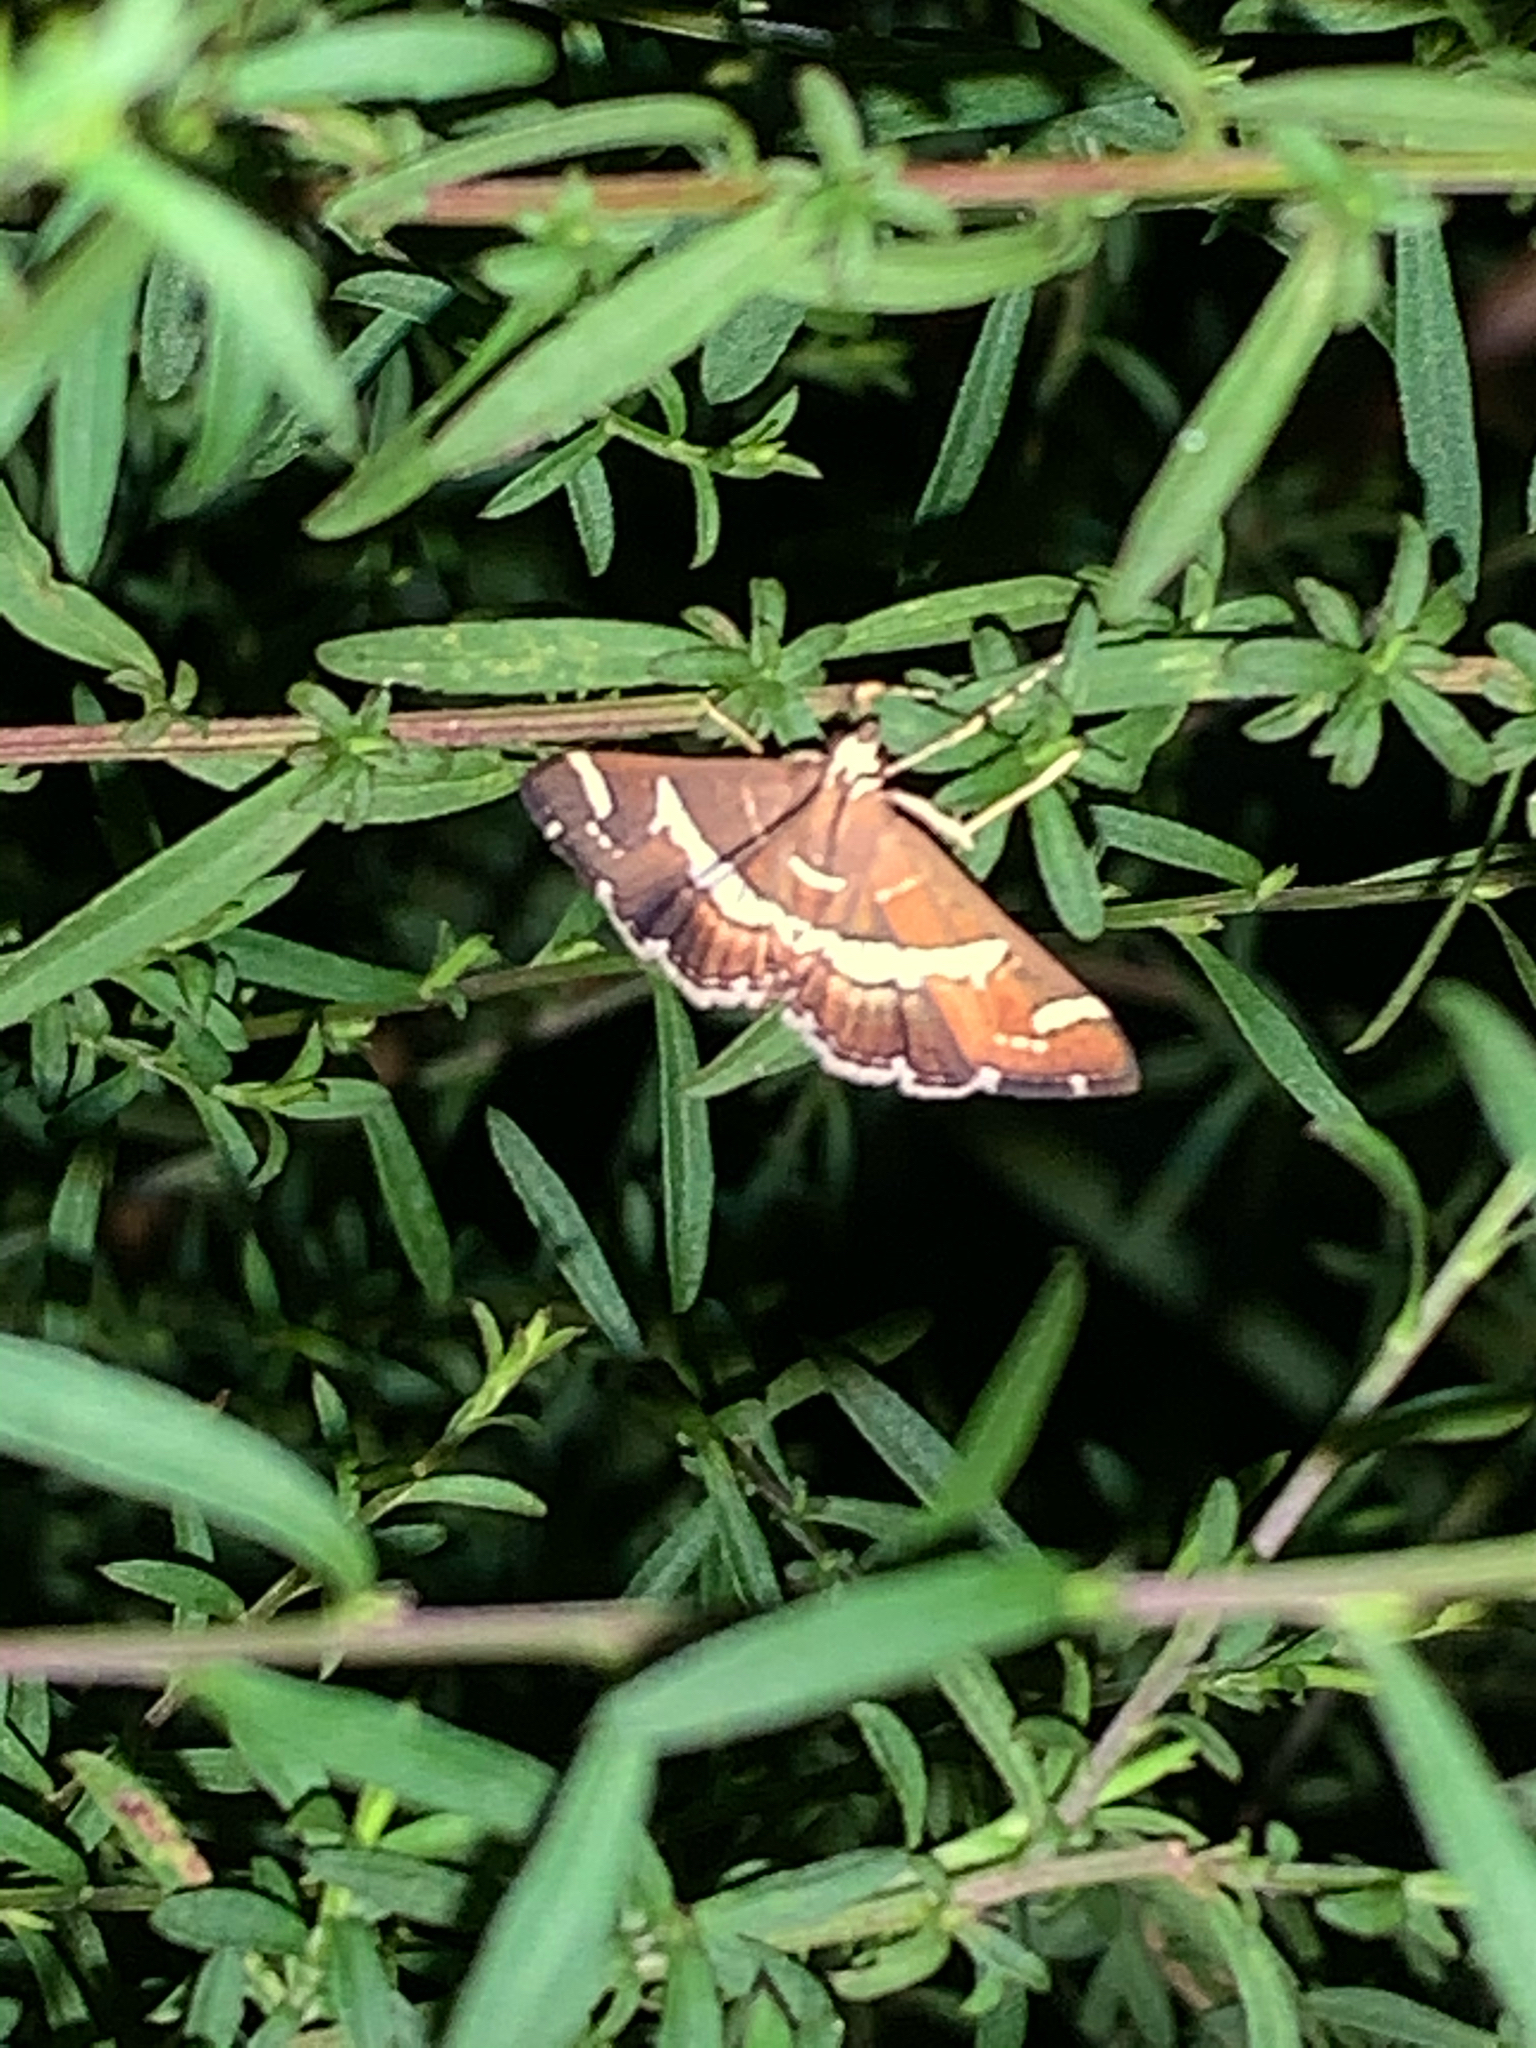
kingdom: Animalia
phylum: Arthropoda
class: Insecta
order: Lepidoptera
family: Crambidae
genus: Spoladea
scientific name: Spoladea recurvalis
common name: Beet webworm moth
